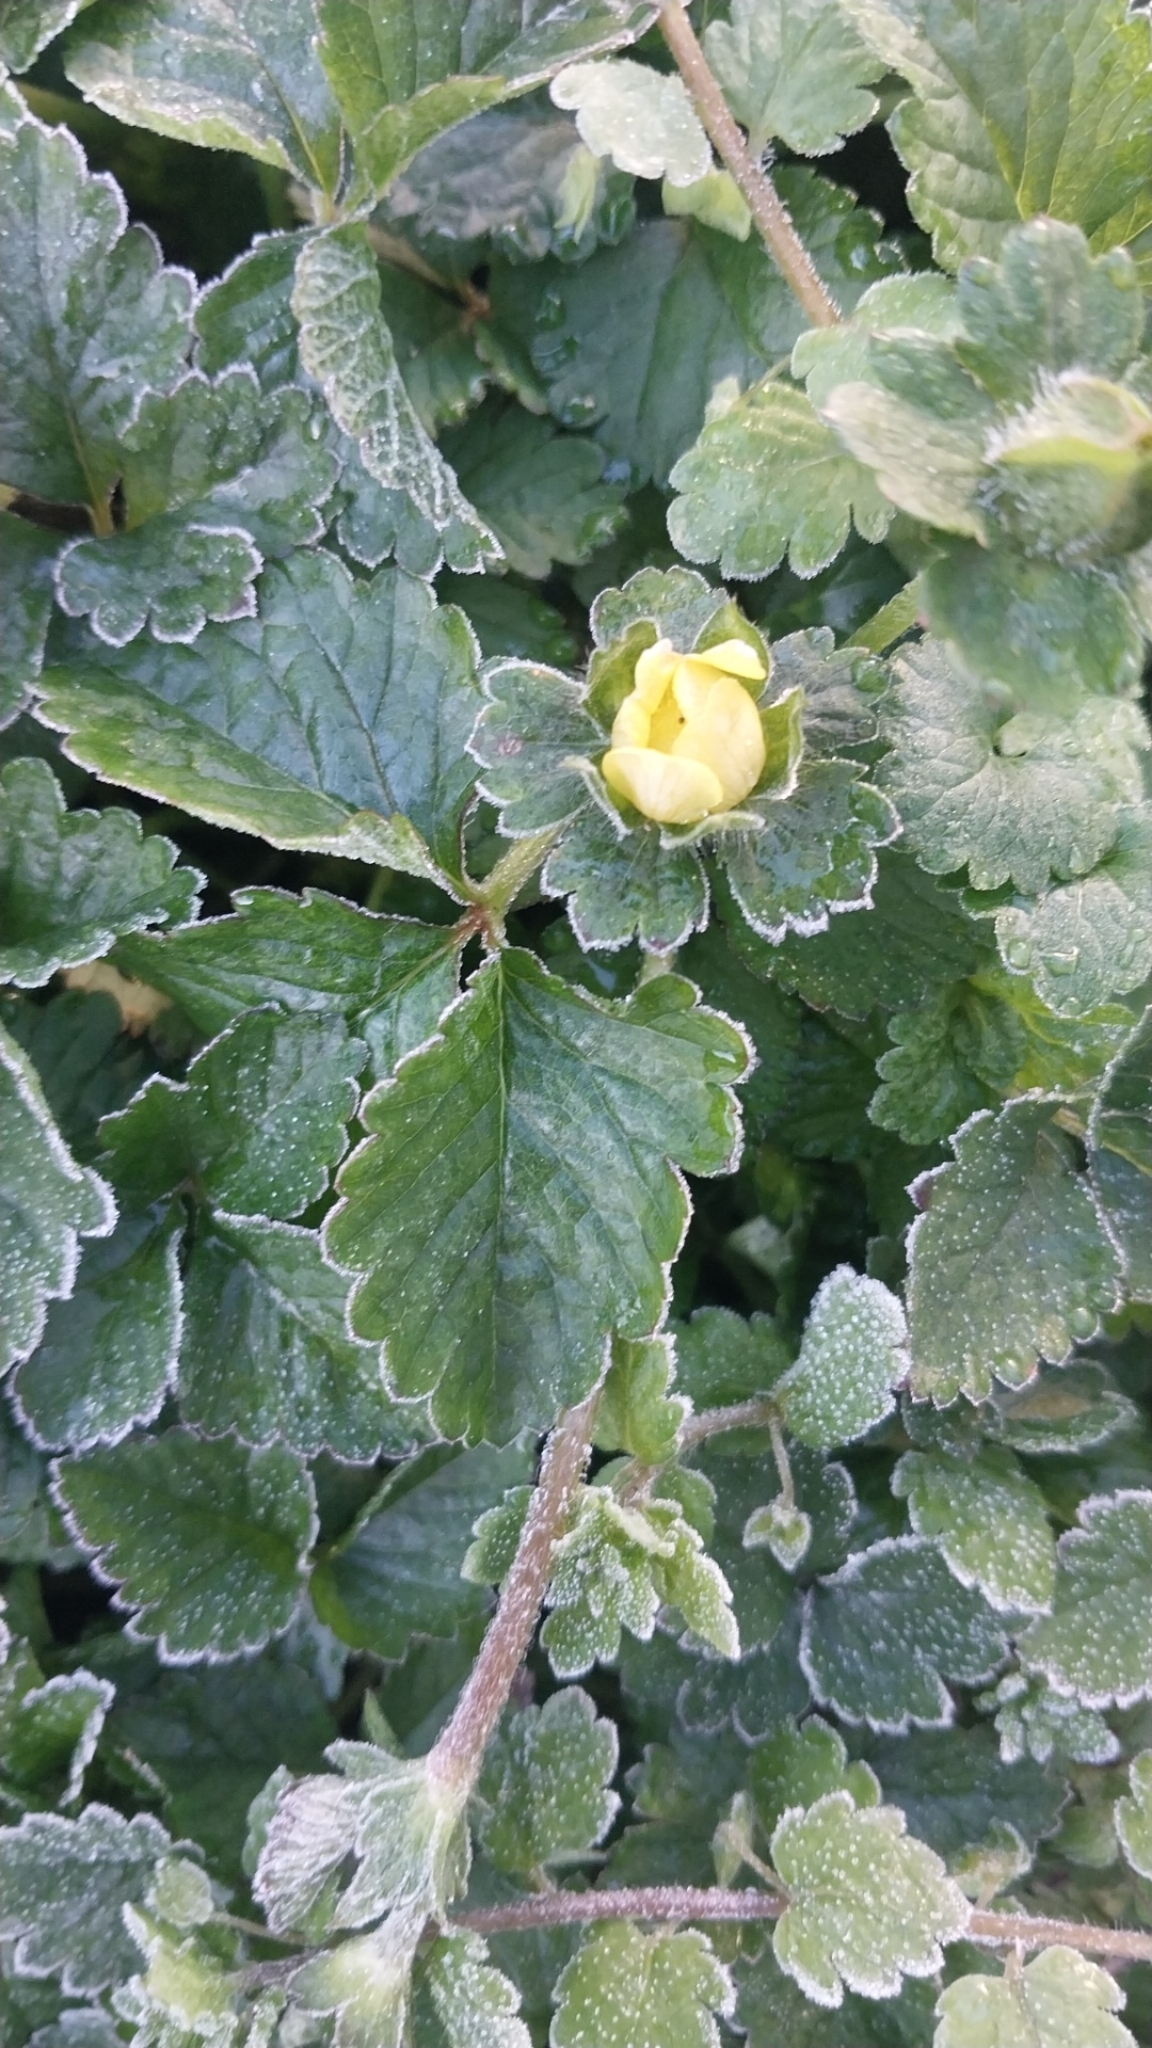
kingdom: Plantae
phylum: Tracheophyta
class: Magnoliopsida
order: Rosales
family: Rosaceae
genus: Potentilla
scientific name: Potentilla indica
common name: Yellow-flowered strawberry
